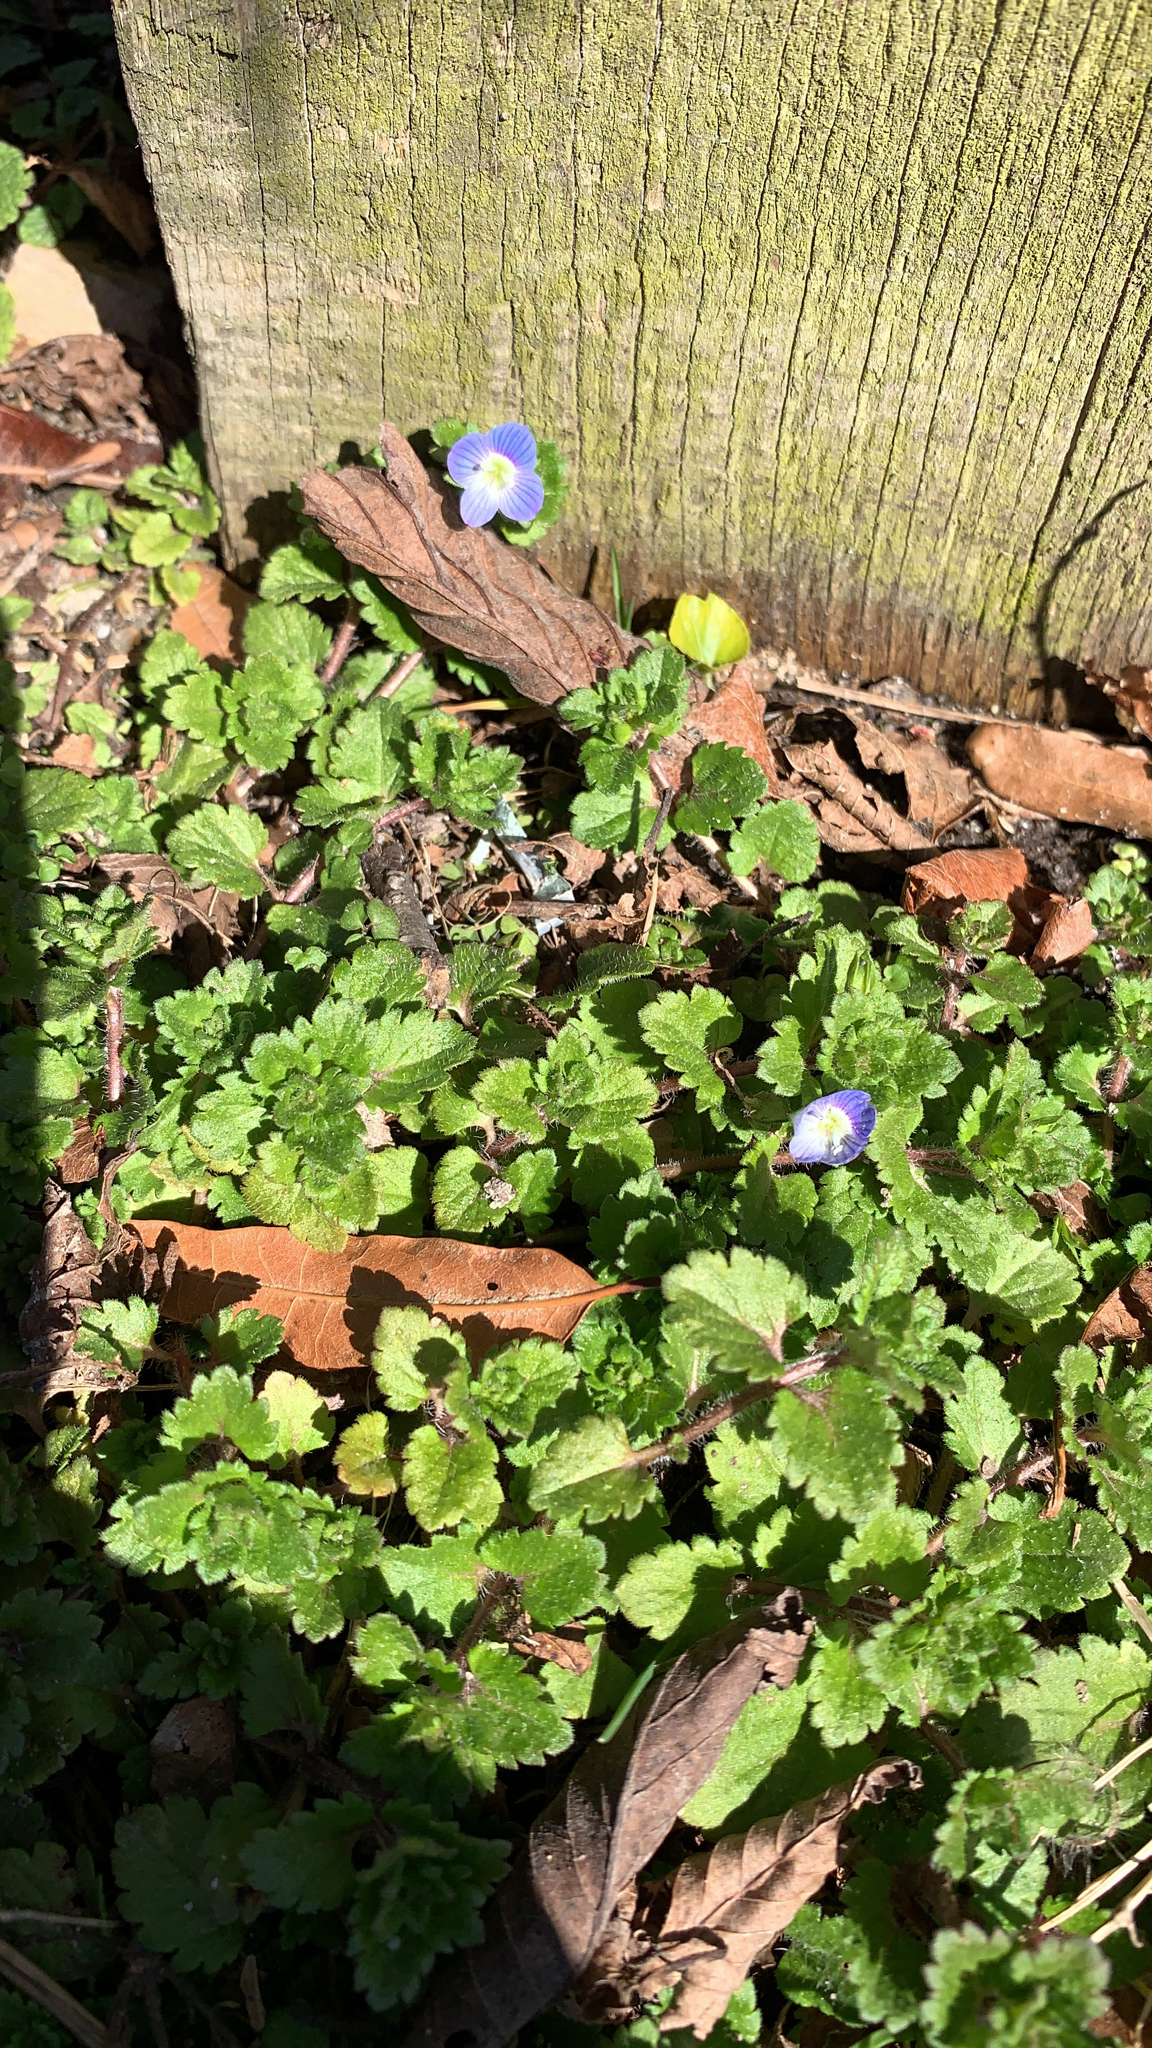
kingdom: Plantae
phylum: Tracheophyta
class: Magnoliopsida
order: Lamiales
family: Plantaginaceae
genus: Veronica
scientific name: Veronica persica
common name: Common field-speedwell
